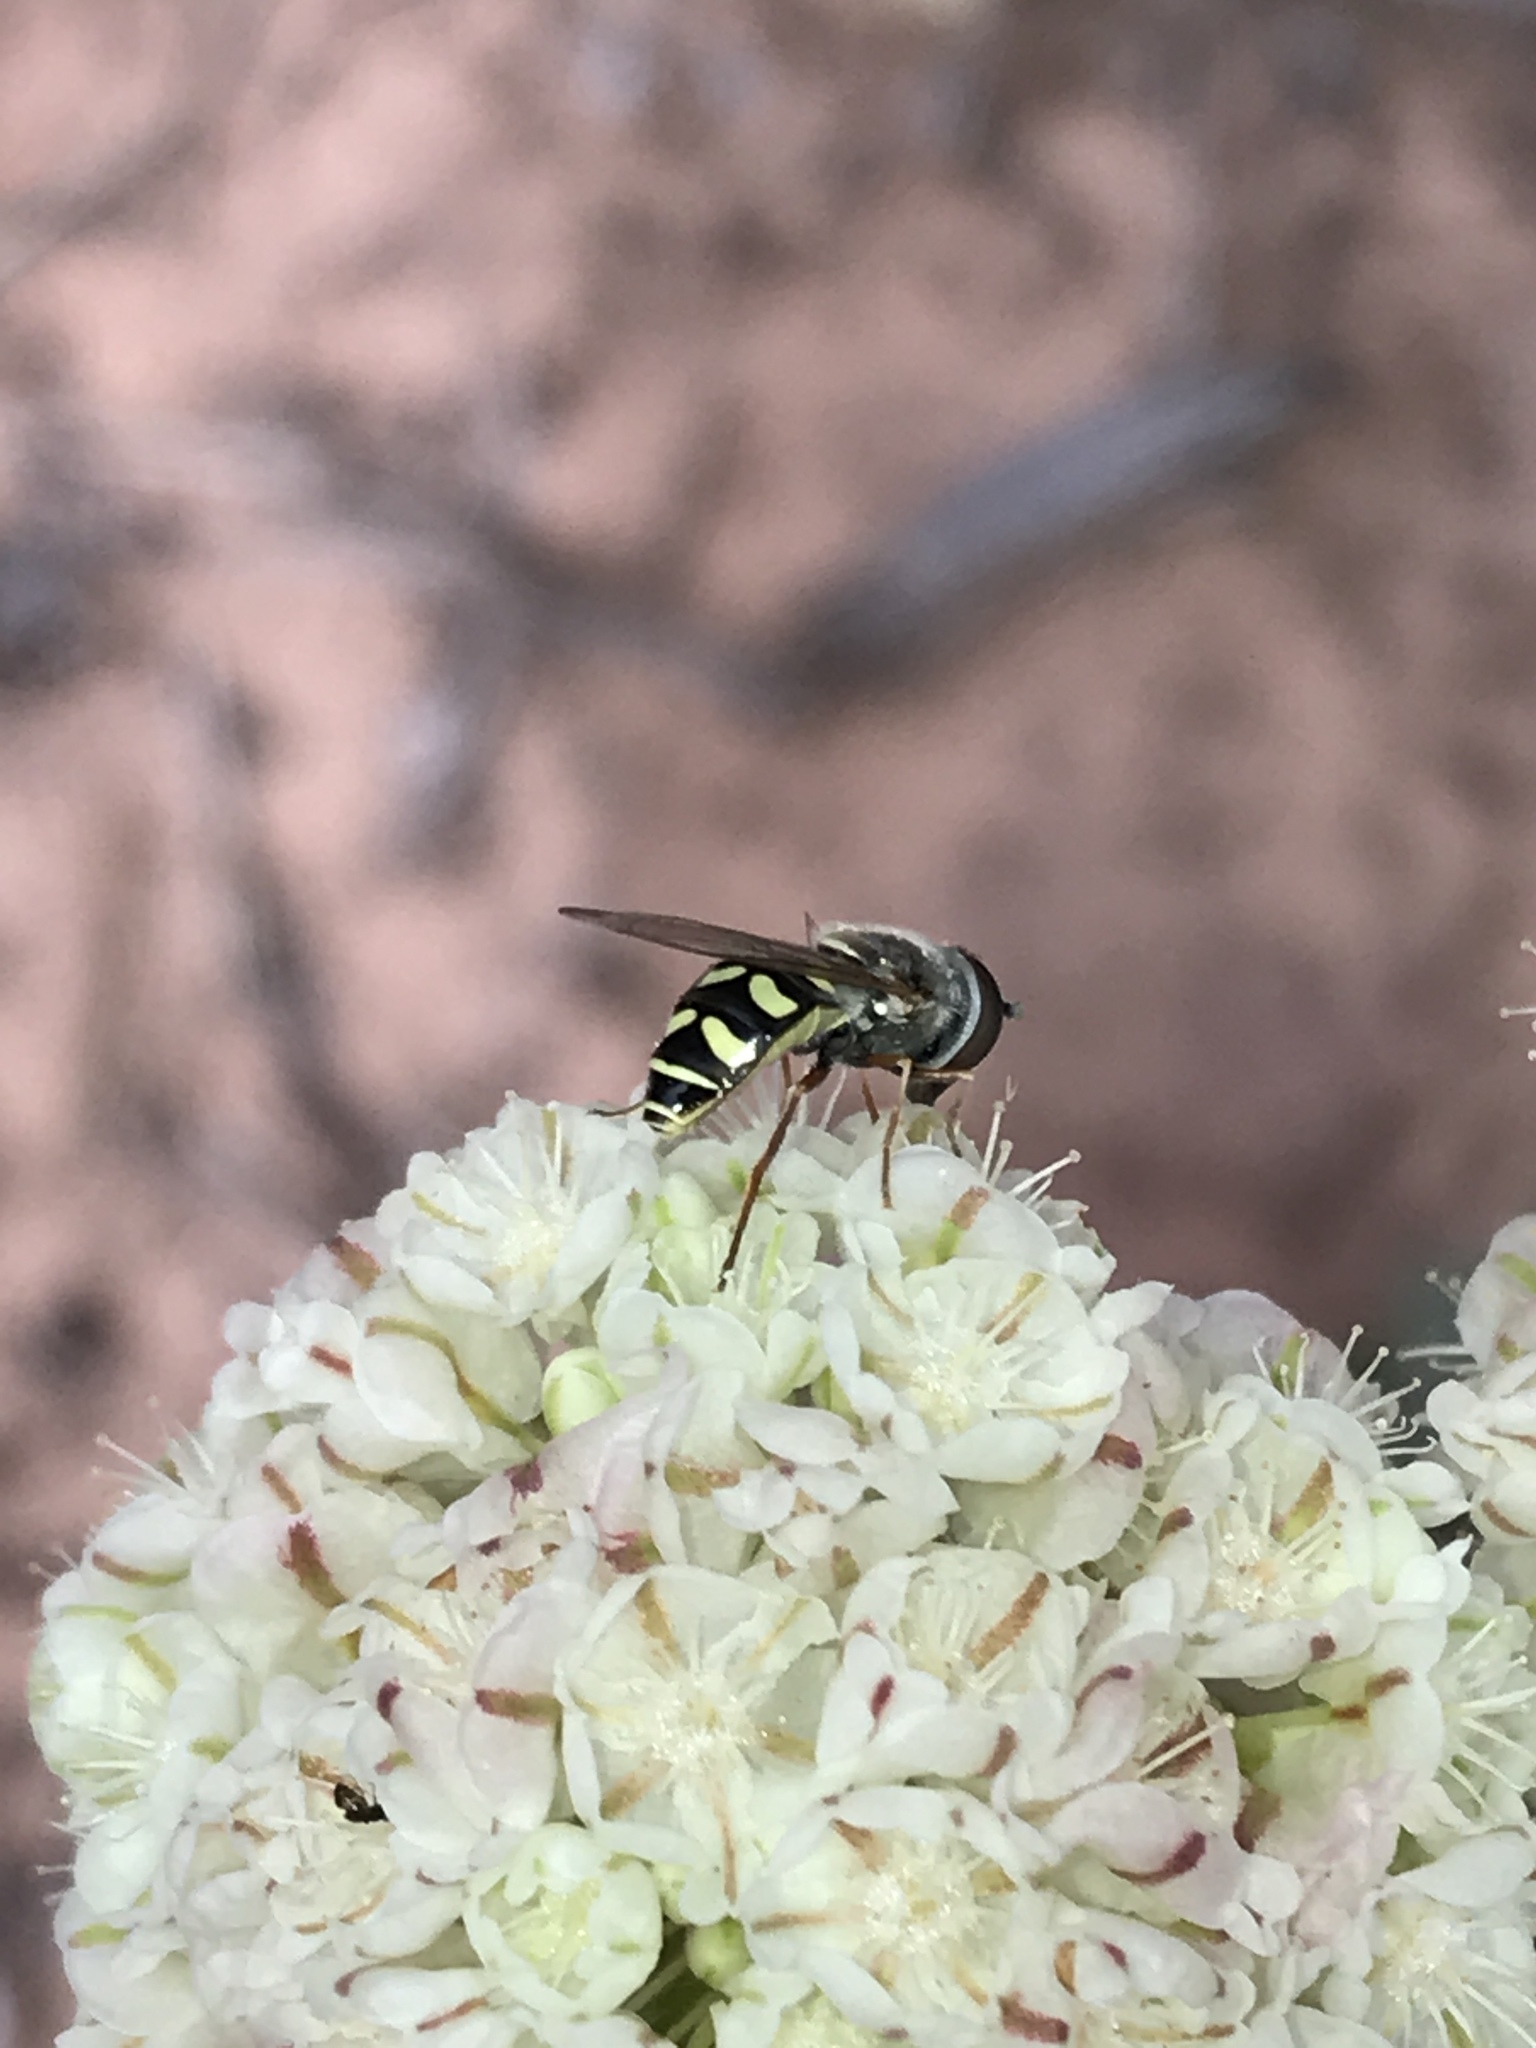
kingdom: Animalia
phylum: Arthropoda
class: Insecta
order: Diptera
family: Syrphidae
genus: Eupeodes
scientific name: Eupeodes volucris
